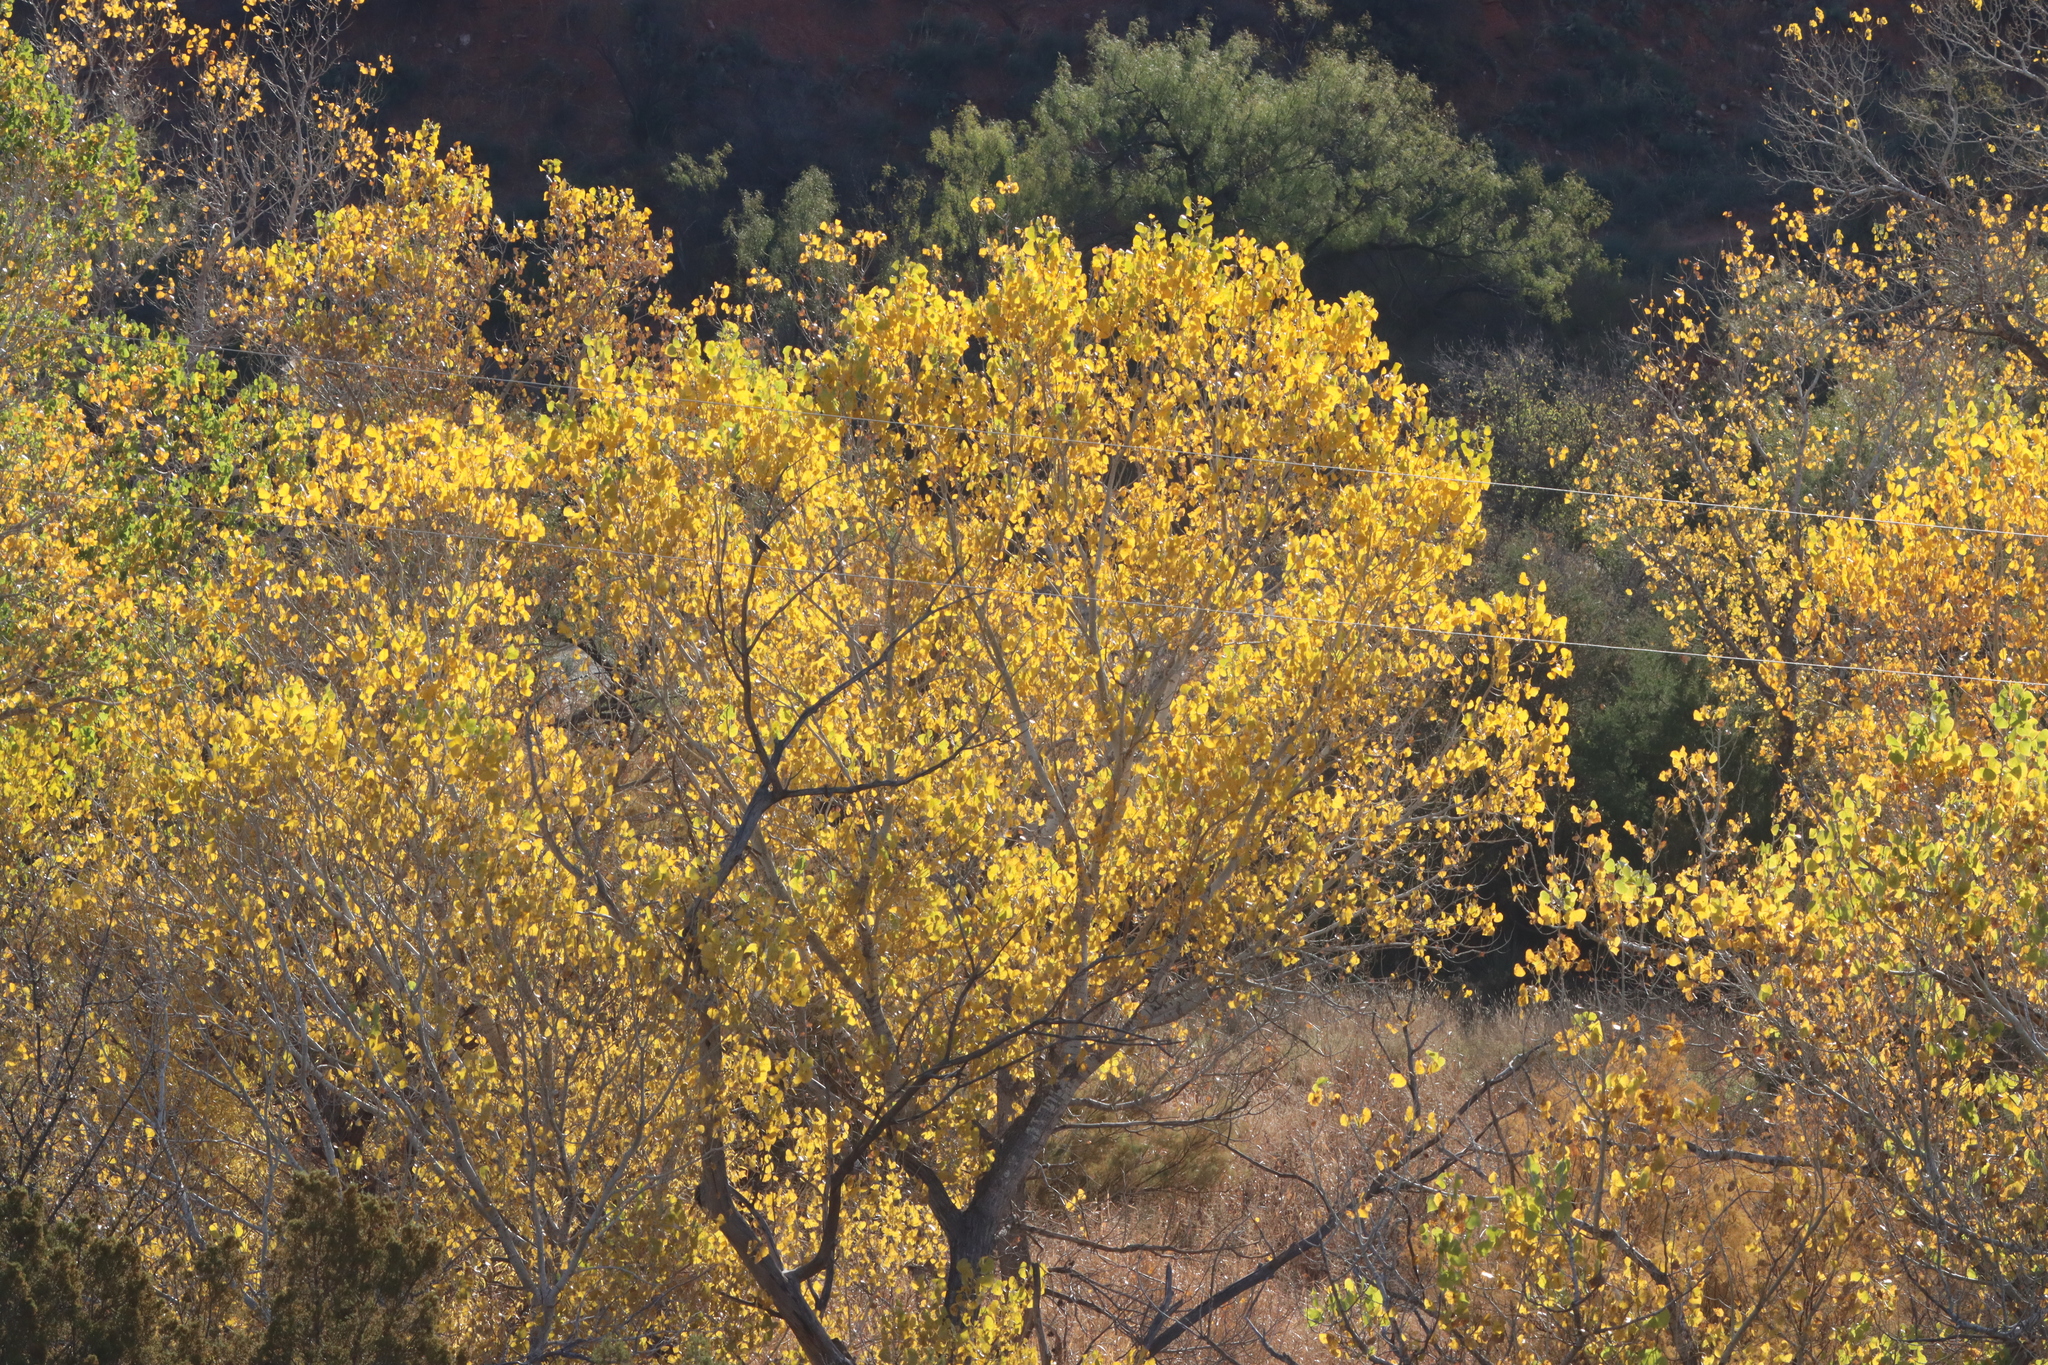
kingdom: Plantae
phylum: Tracheophyta
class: Magnoliopsida
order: Malpighiales
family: Salicaceae
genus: Populus
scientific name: Populus deltoides
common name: Eastern cottonwood
